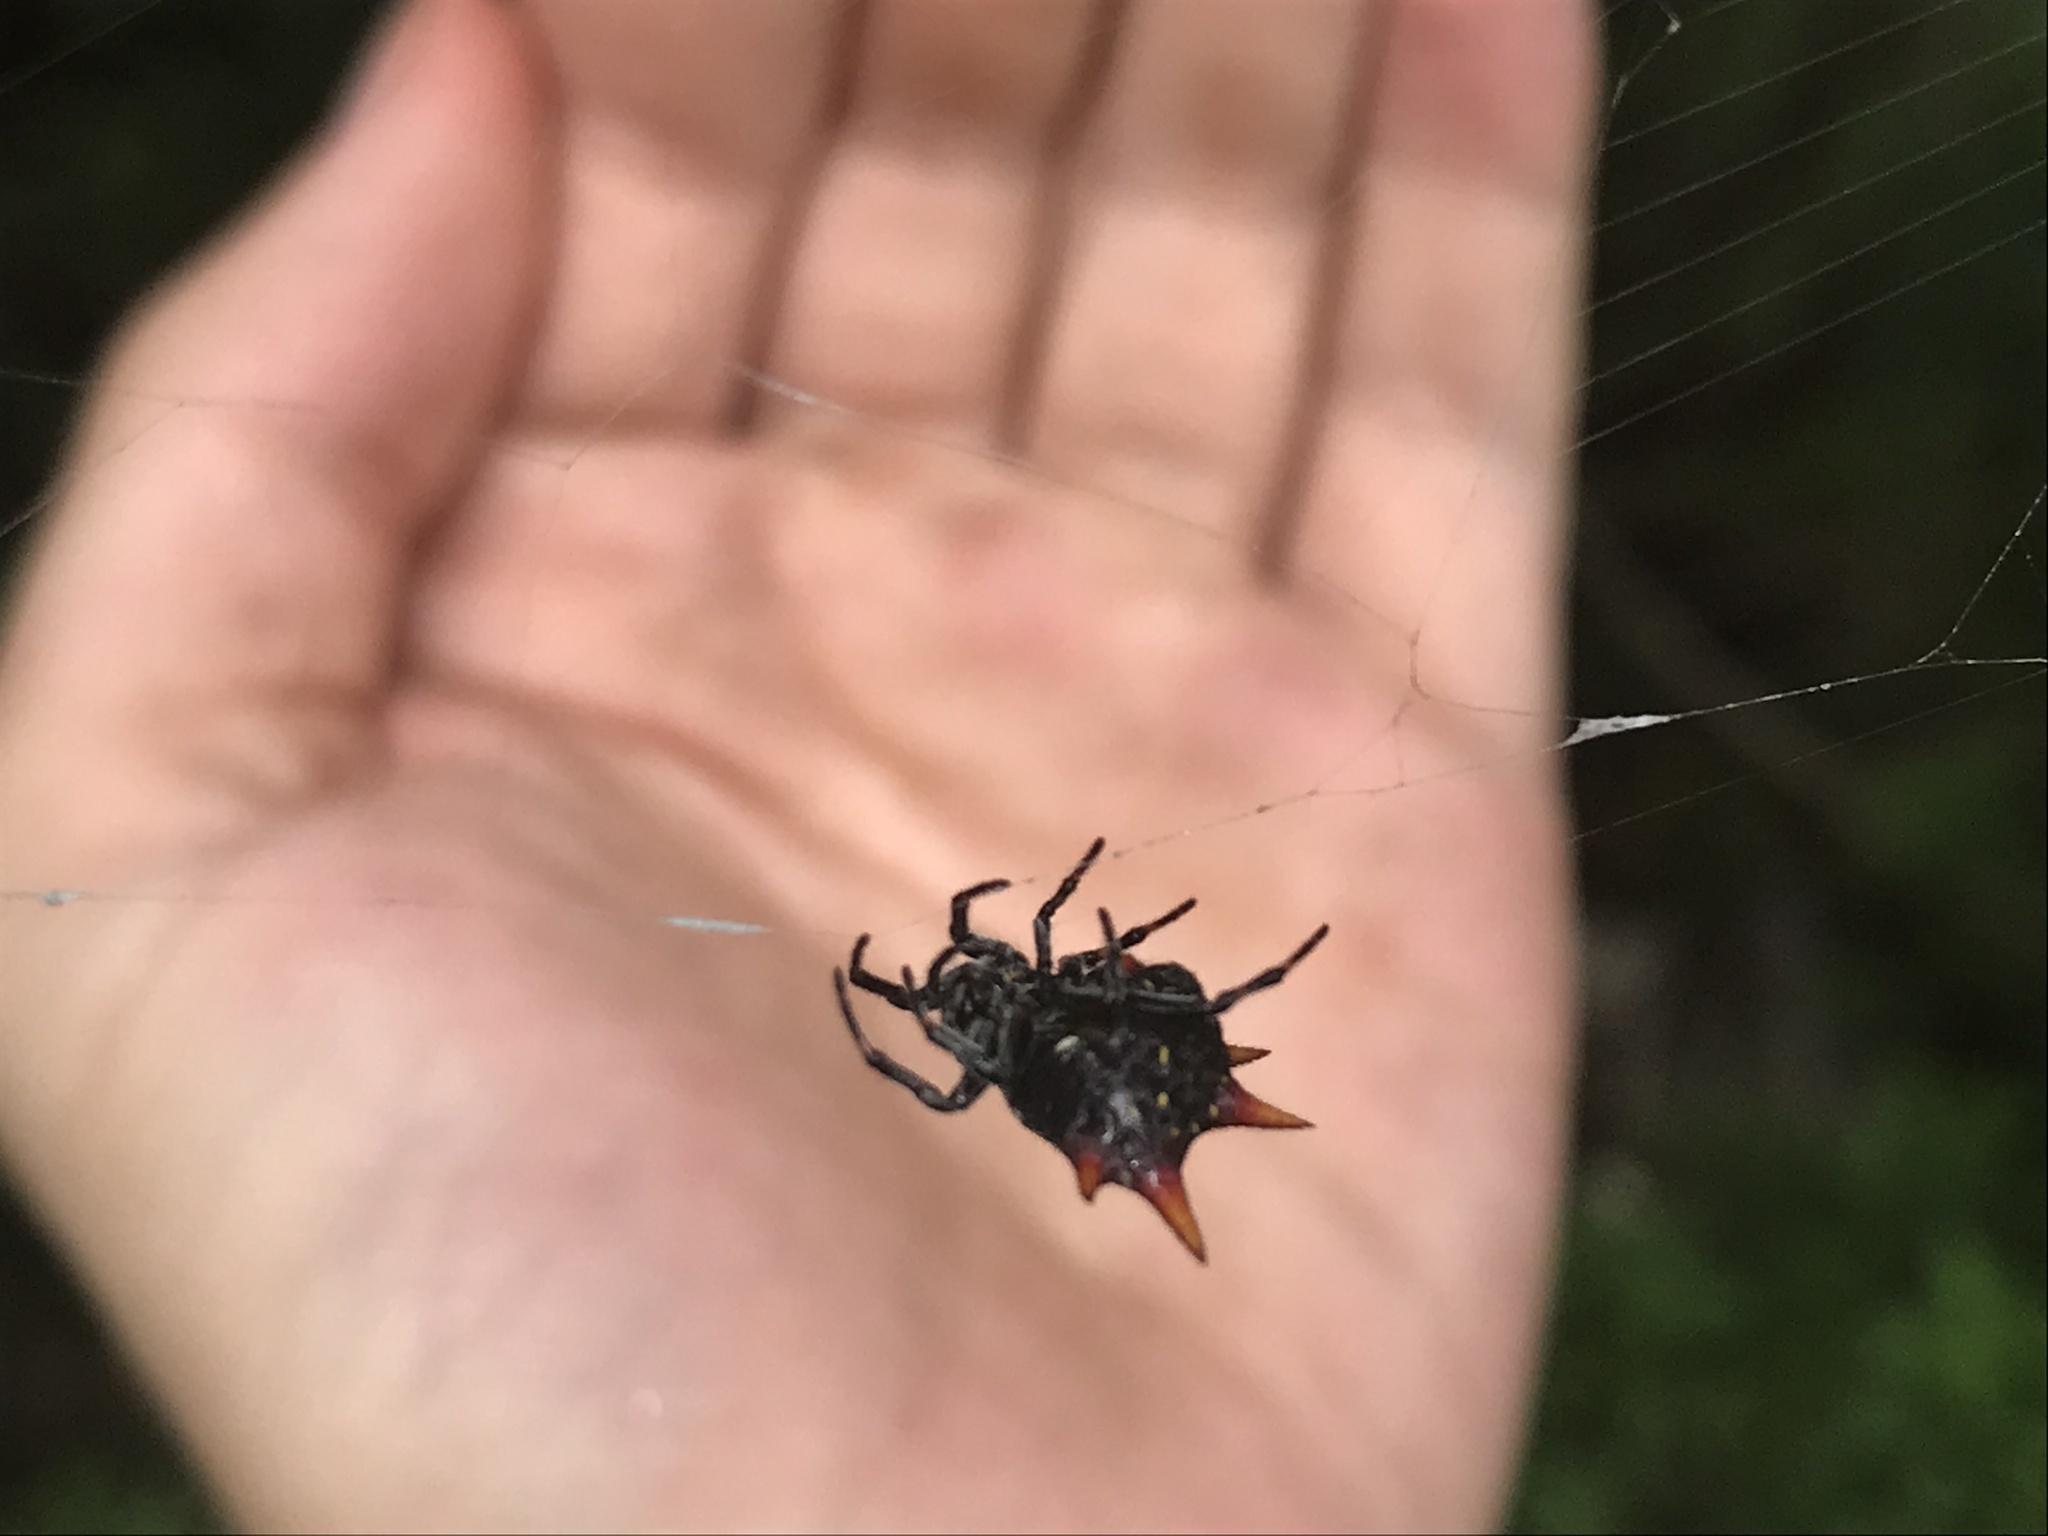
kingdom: Animalia
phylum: Arthropoda
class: Arachnida
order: Araneae
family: Araneidae
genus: Gasteracantha
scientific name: Gasteracantha cancriformis
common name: Orb weavers
